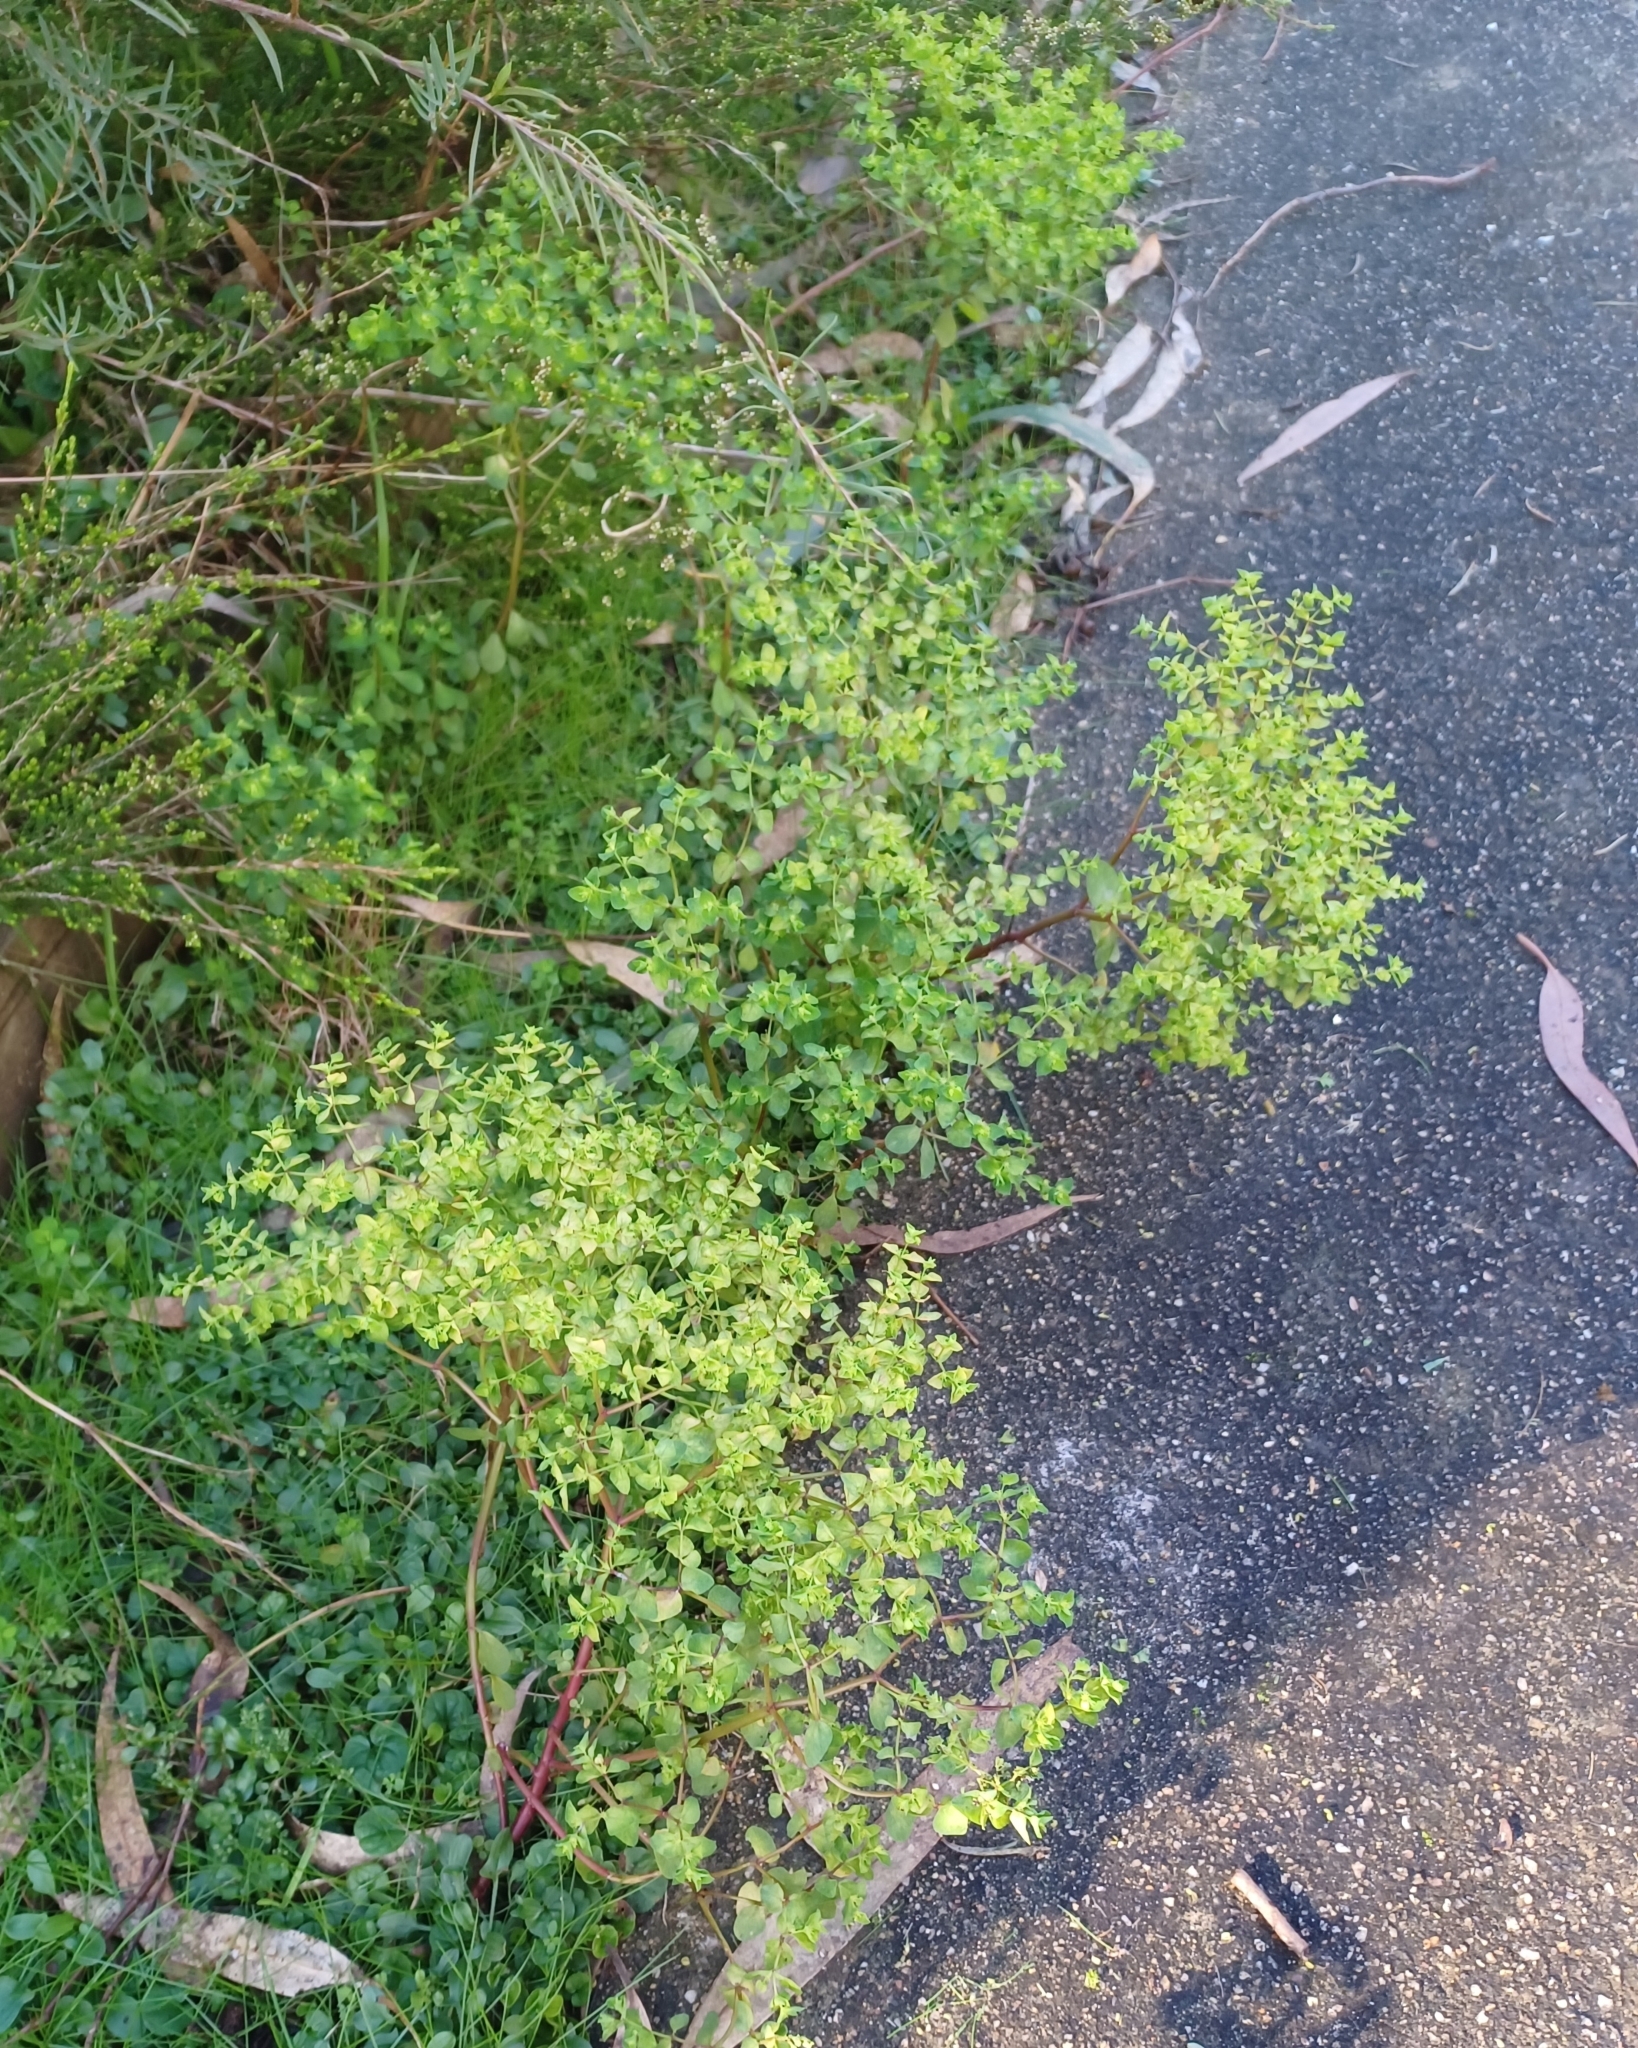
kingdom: Plantae
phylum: Tracheophyta
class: Magnoliopsida
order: Malpighiales
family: Euphorbiaceae
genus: Euphorbia
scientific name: Euphorbia peplus
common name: Petty spurge
